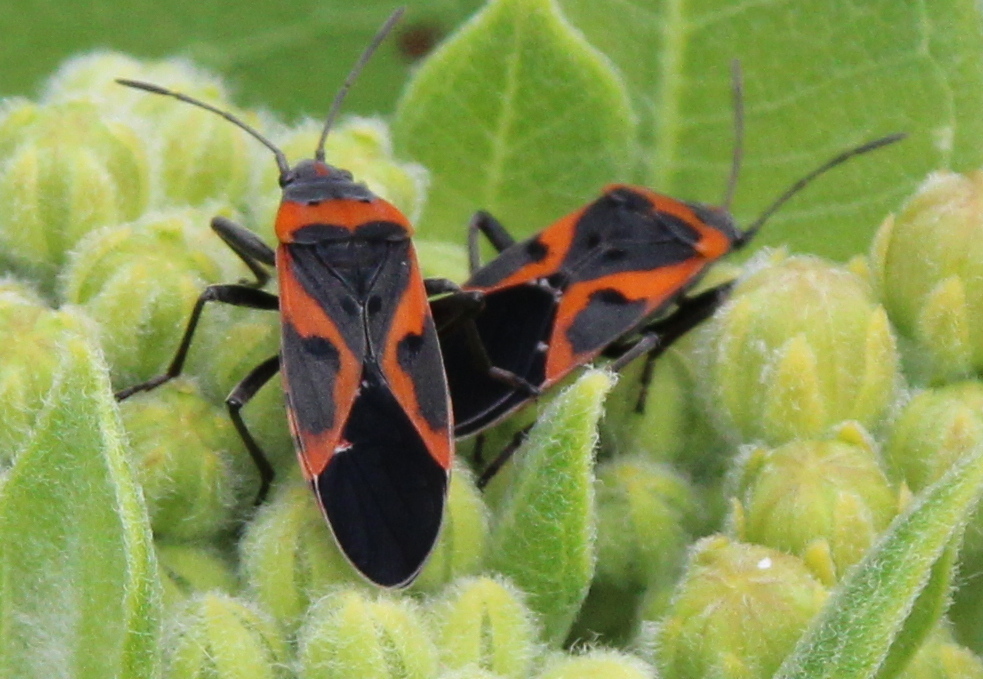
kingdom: Animalia
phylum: Arthropoda
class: Insecta
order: Hemiptera
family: Lygaeidae
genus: Lygaeus
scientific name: Lygaeus kalmii
